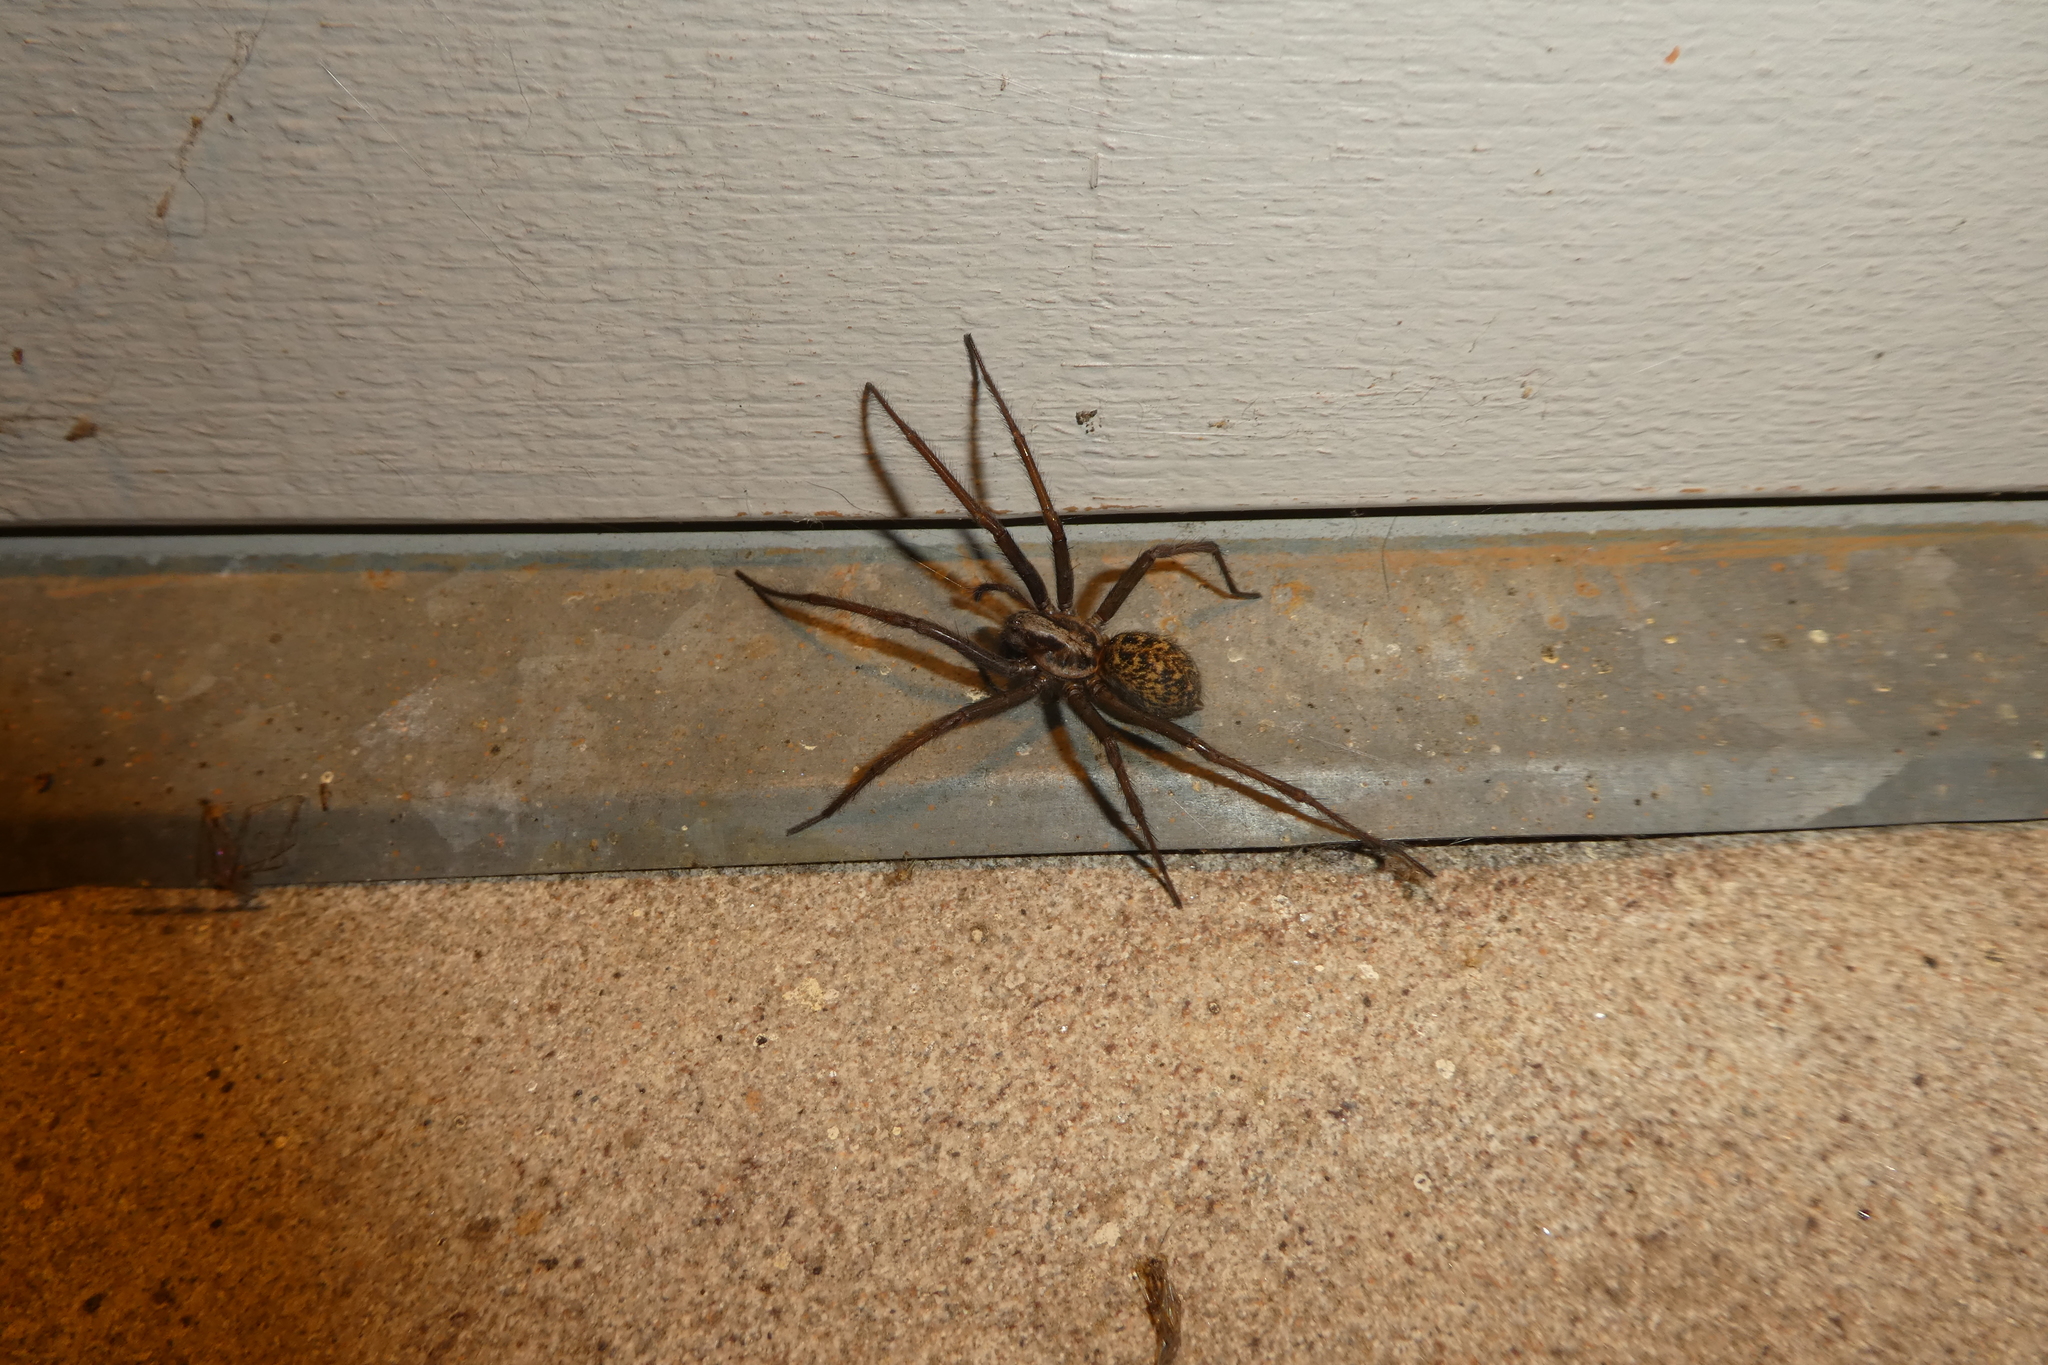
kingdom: Animalia
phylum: Arthropoda
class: Arachnida
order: Araneae
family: Agelenidae
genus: Eratigena
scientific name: Eratigena duellica
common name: Giant house spider
